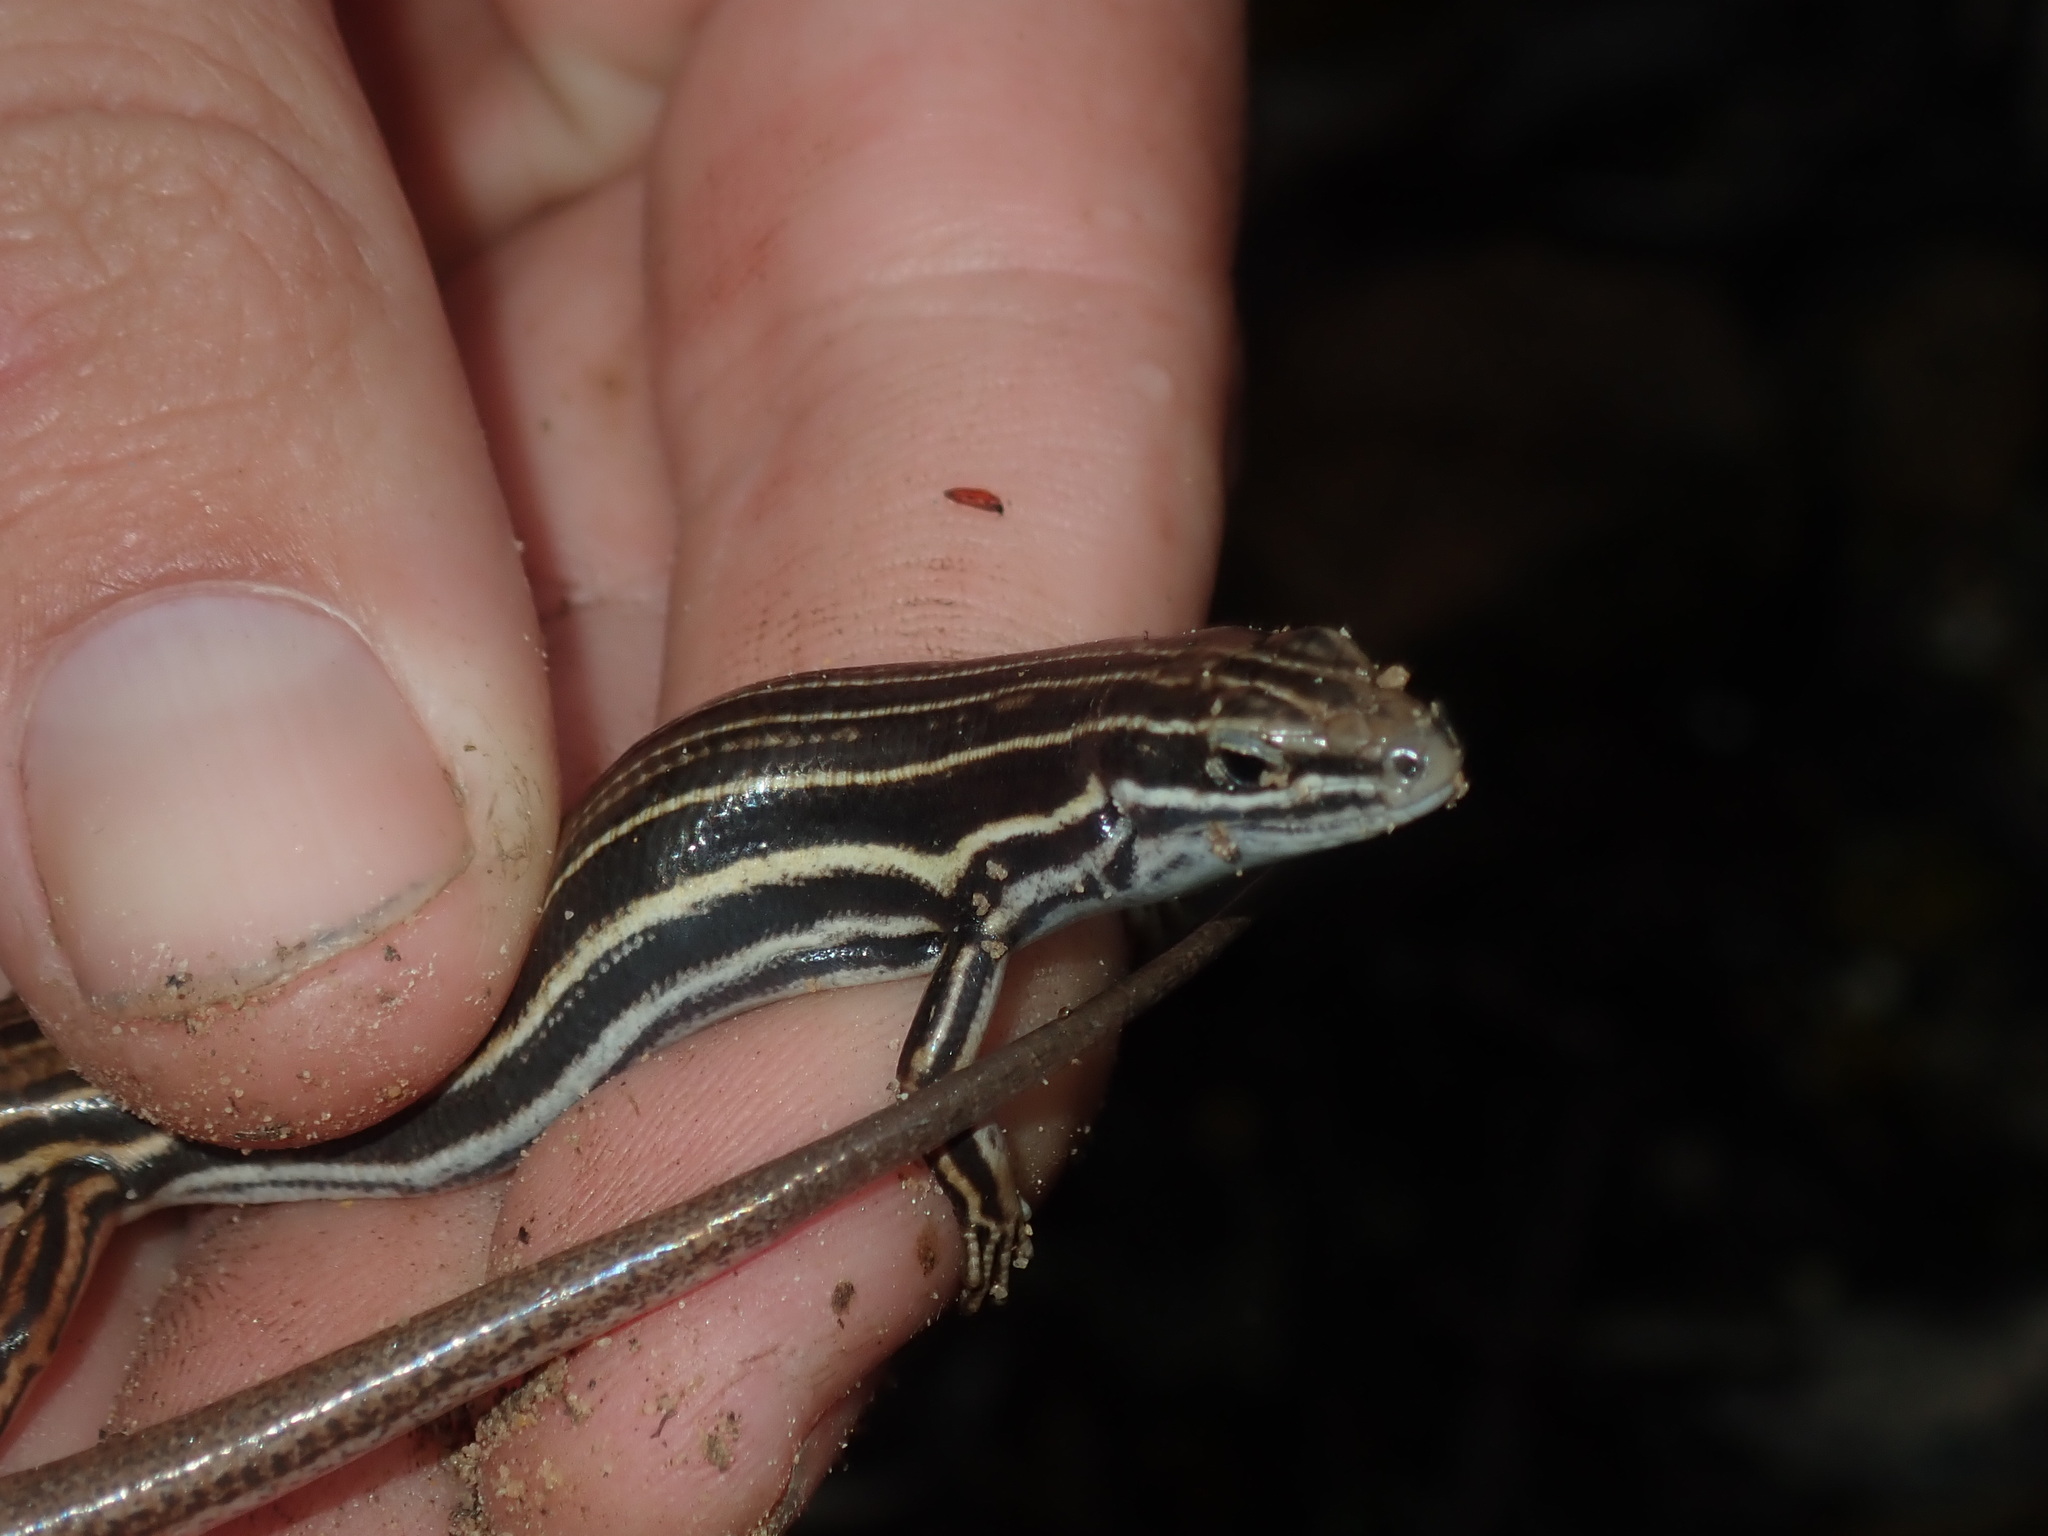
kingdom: Animalia
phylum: Chordata
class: Squamata
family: Scincidae
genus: Ctenotus
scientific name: Ctenotus taeniolatus
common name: Copper-tailed skink
